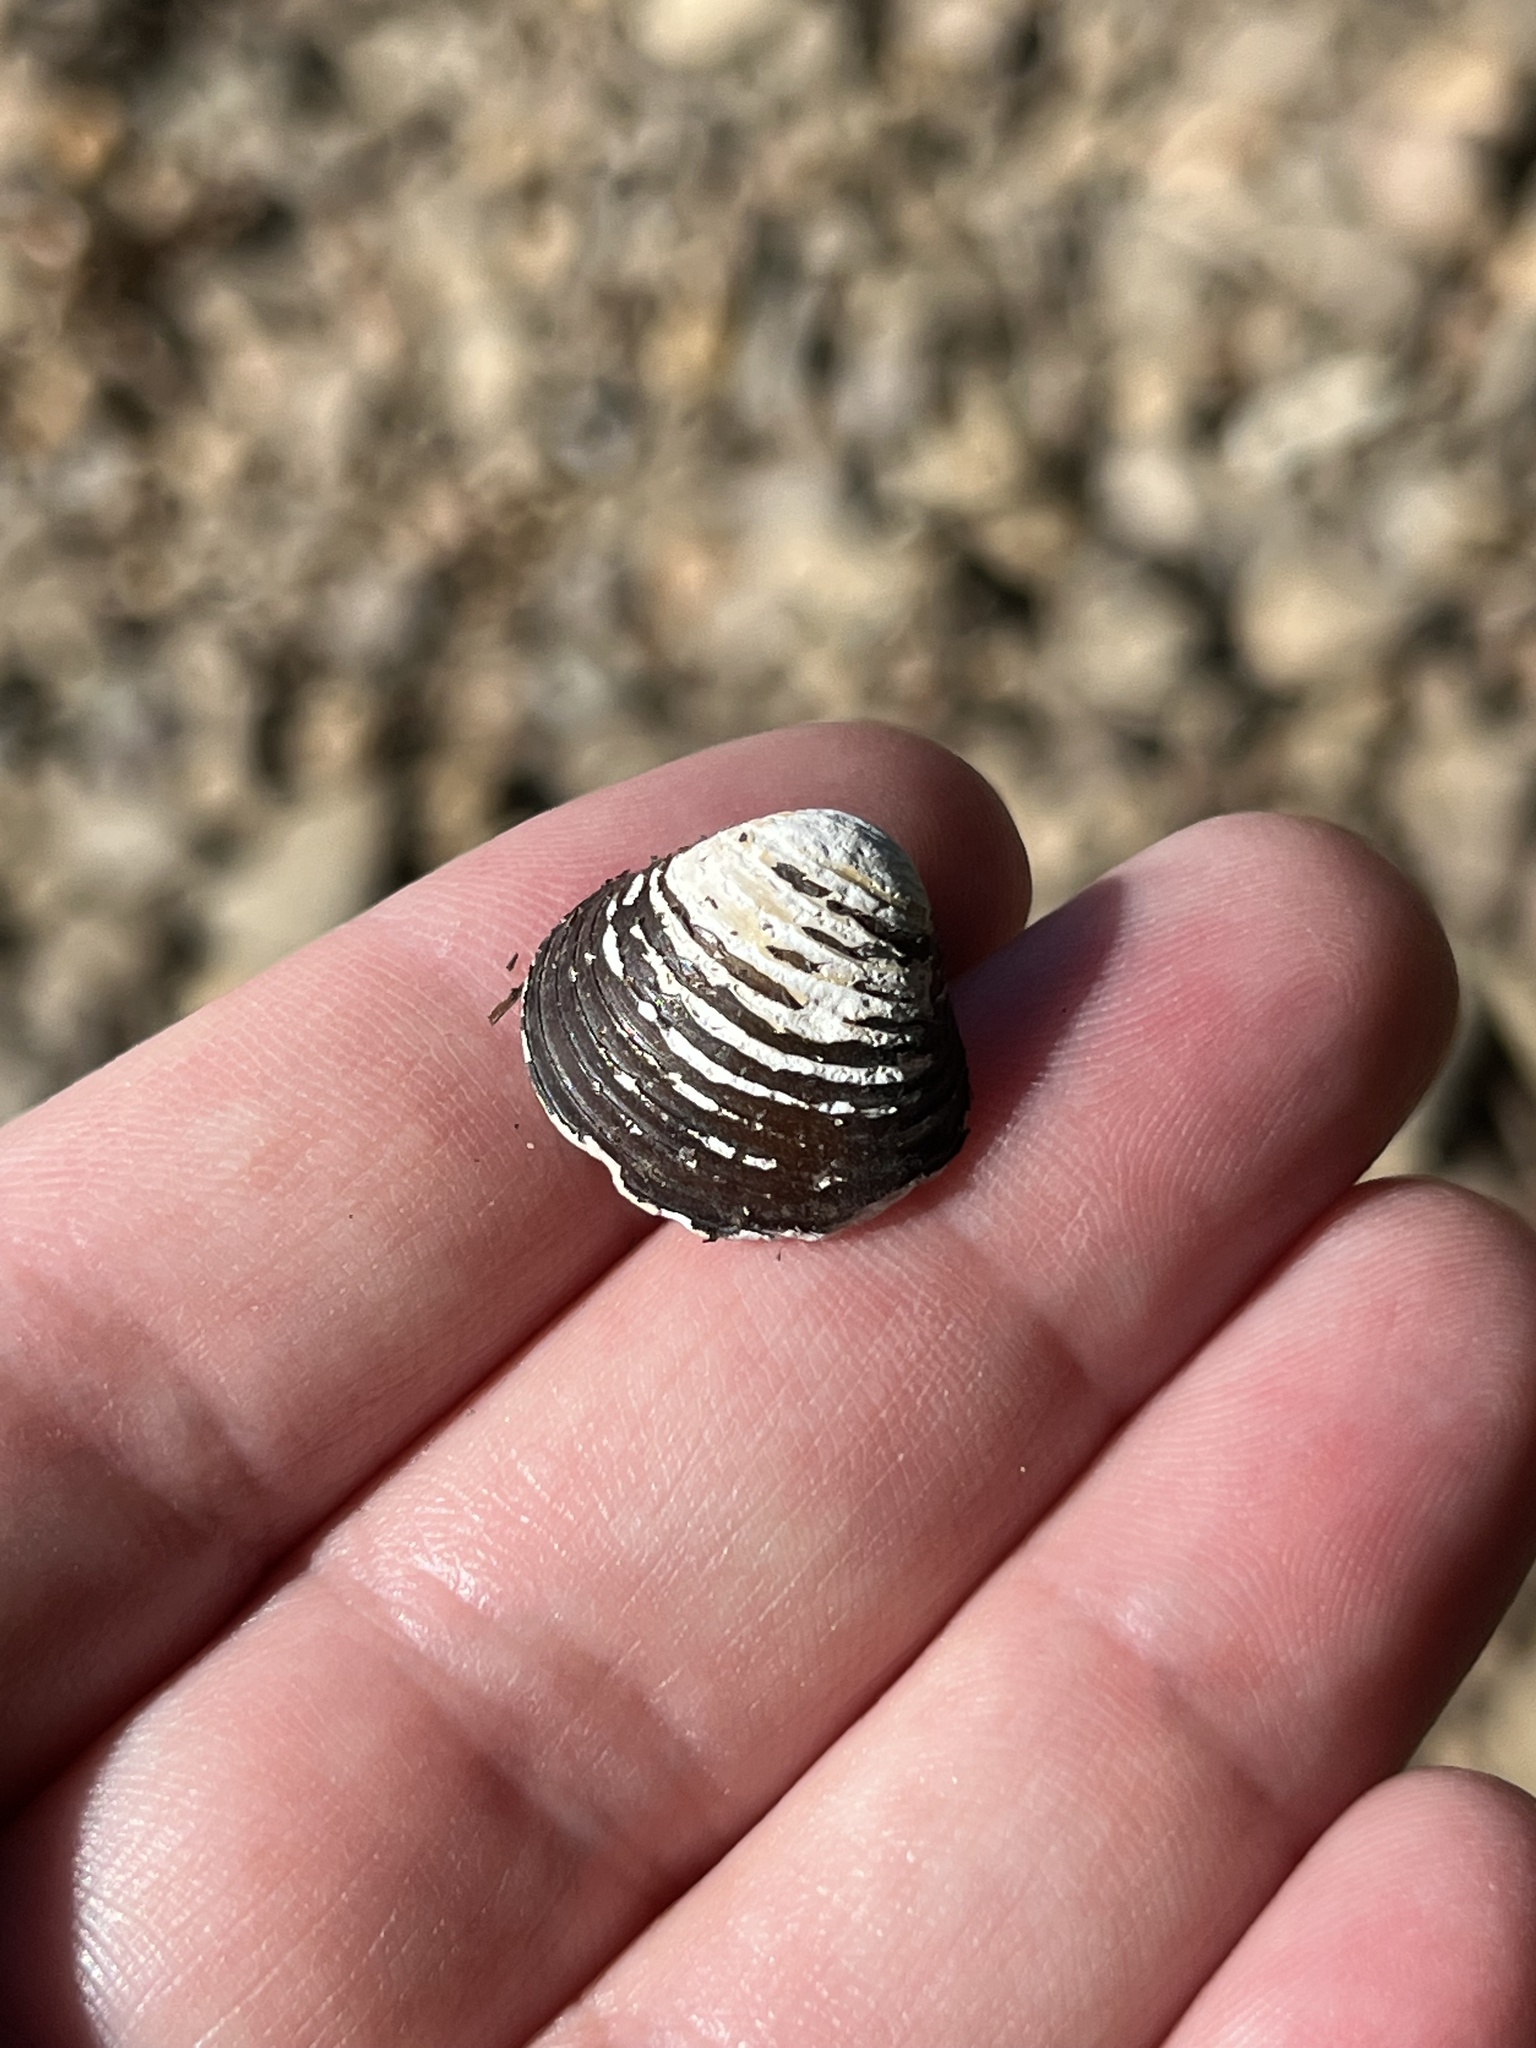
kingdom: Animalia
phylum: Mollusca
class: Bivalvia
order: Venerida
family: Cyrenidae
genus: Corbicula
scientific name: Corbicula fluminea
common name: Asian clam
